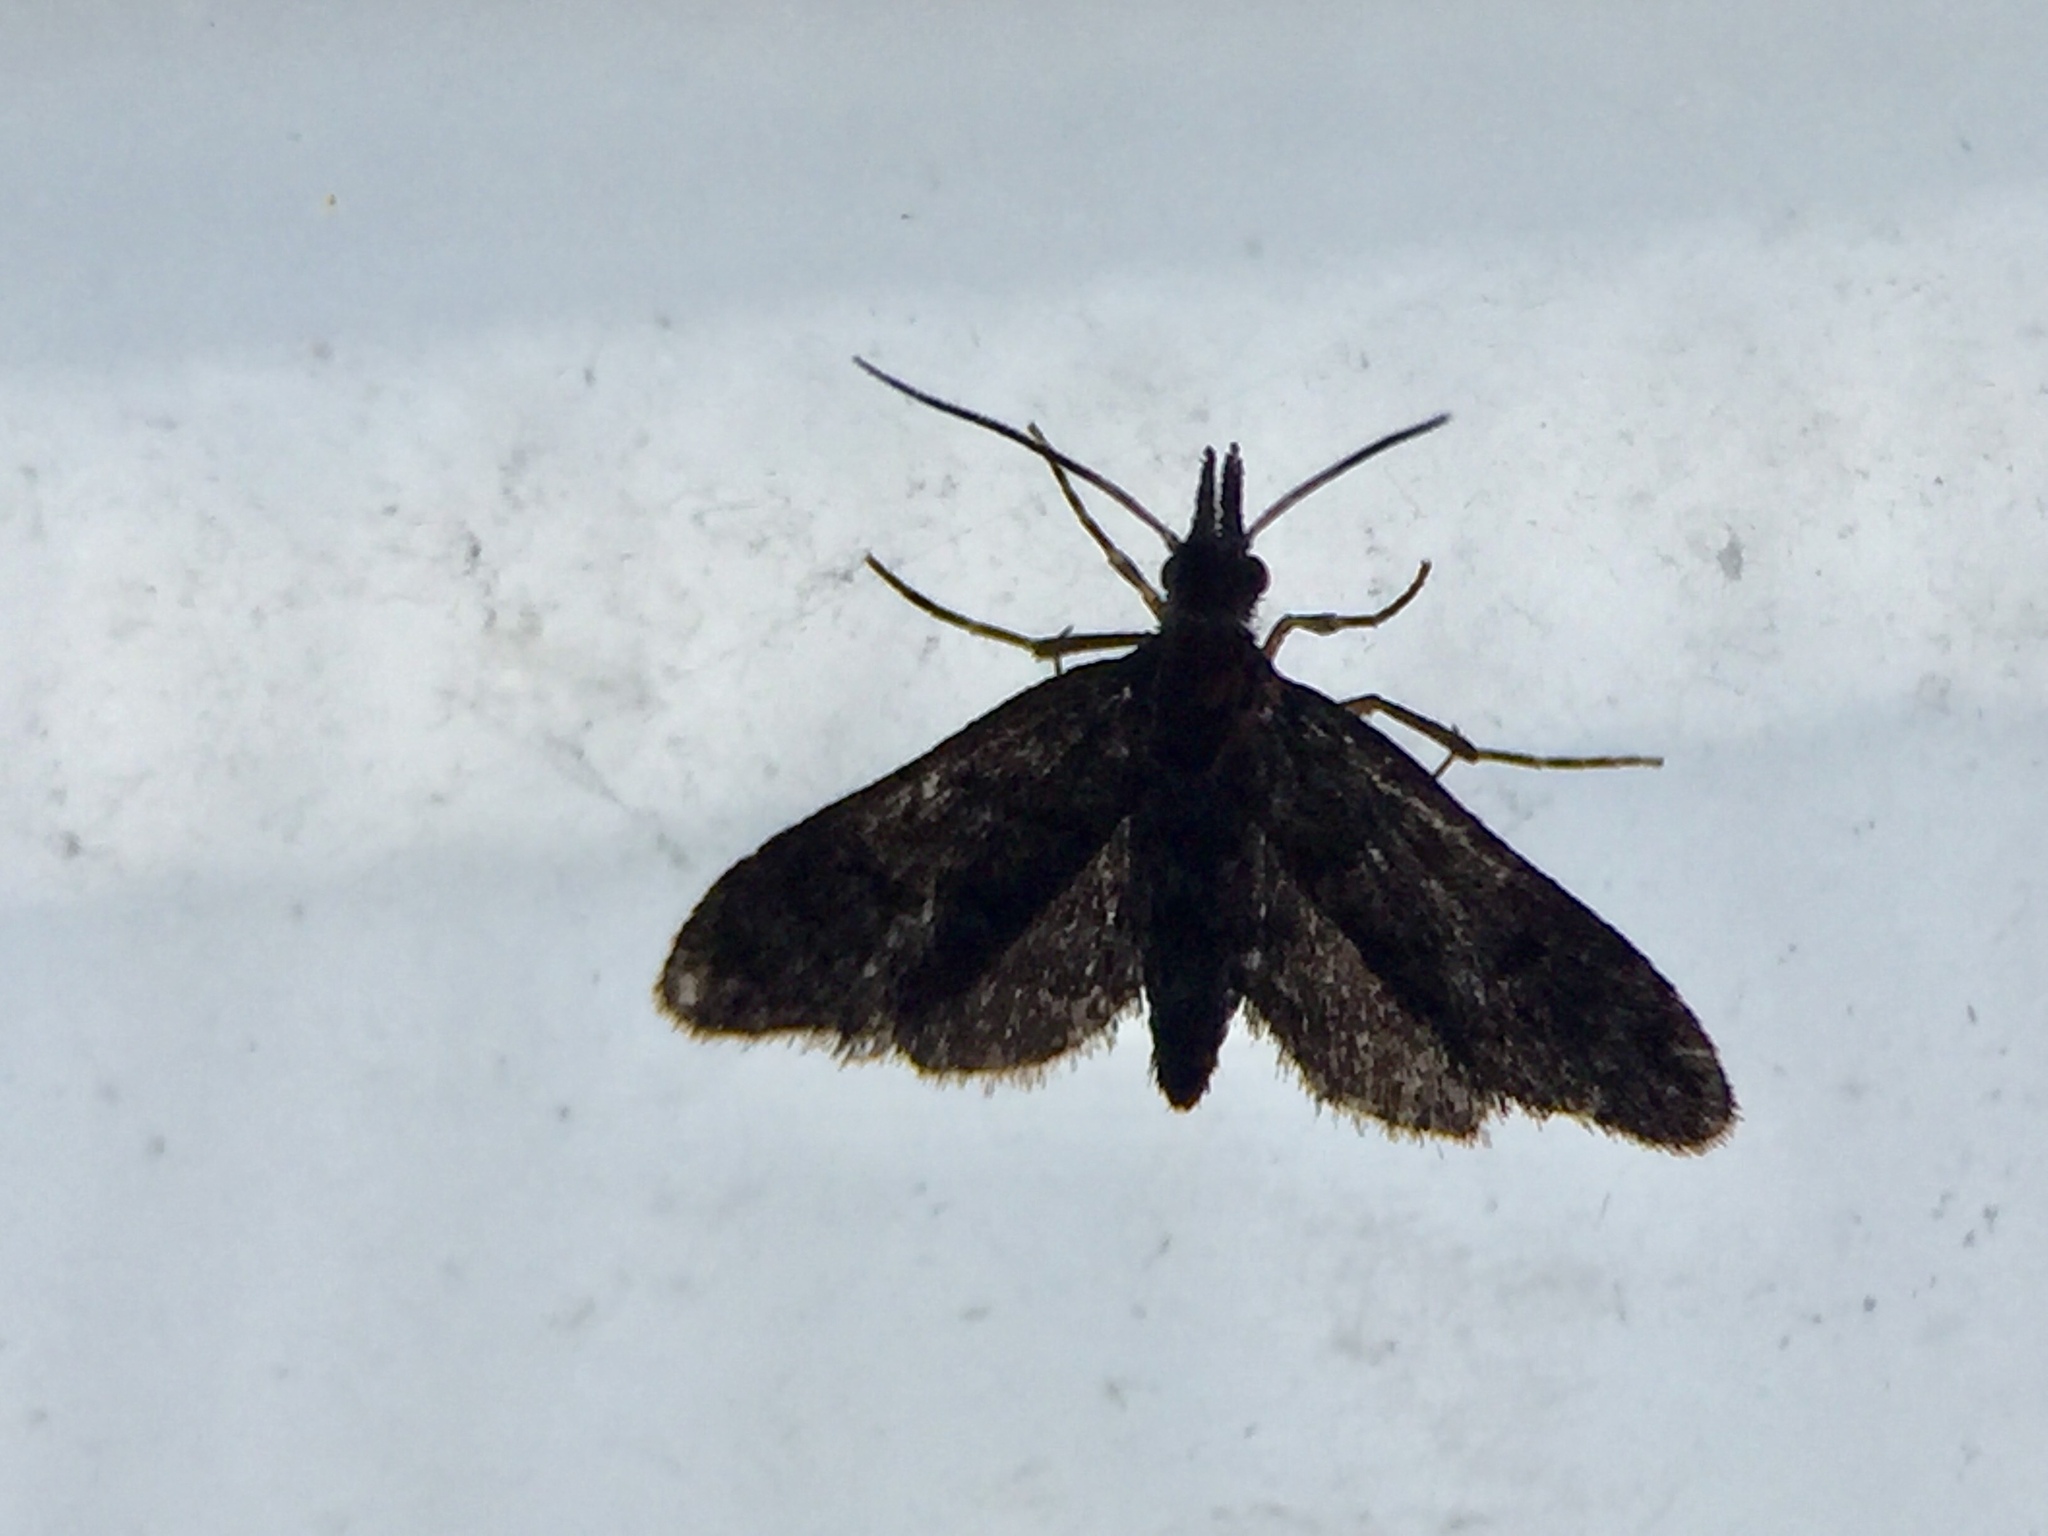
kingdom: Animalia
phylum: Arthropoda
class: Insecta
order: Lepidoptera
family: Copromorphidae
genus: Isonomeutis
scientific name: Isonomeutis amauropa
